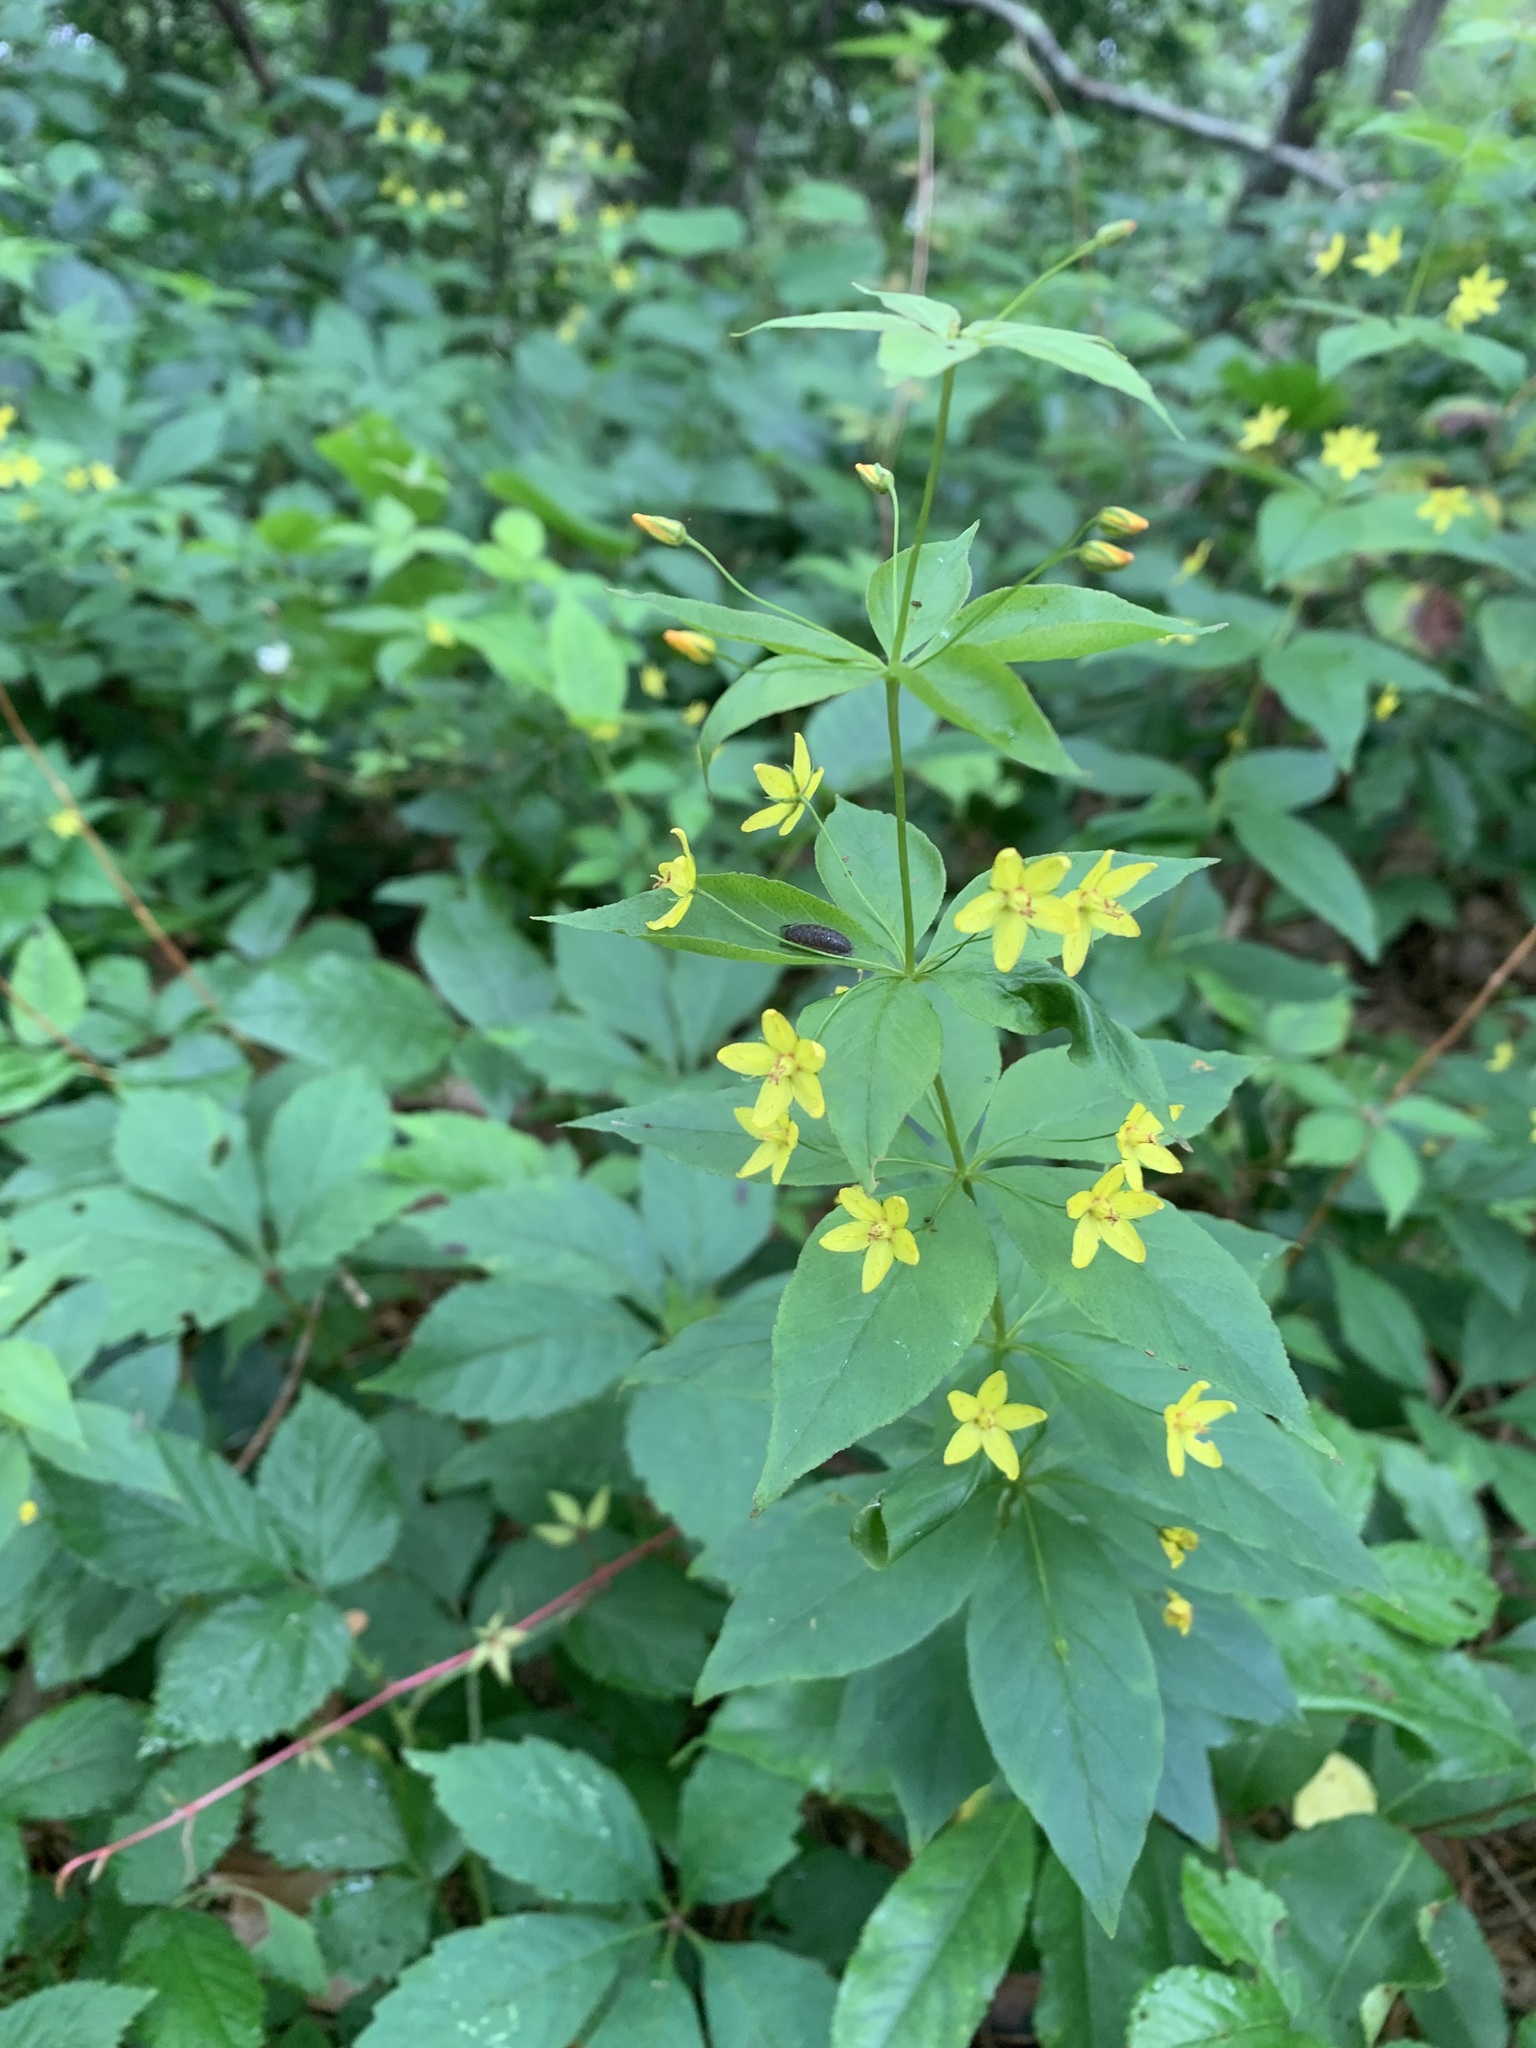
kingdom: Plantae
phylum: Tracheophyta
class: Magnoliopsida
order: Ericales
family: Primulaceae
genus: Lysimachia
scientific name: Lysimachia quadrifolia
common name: Whorled loosestrife
